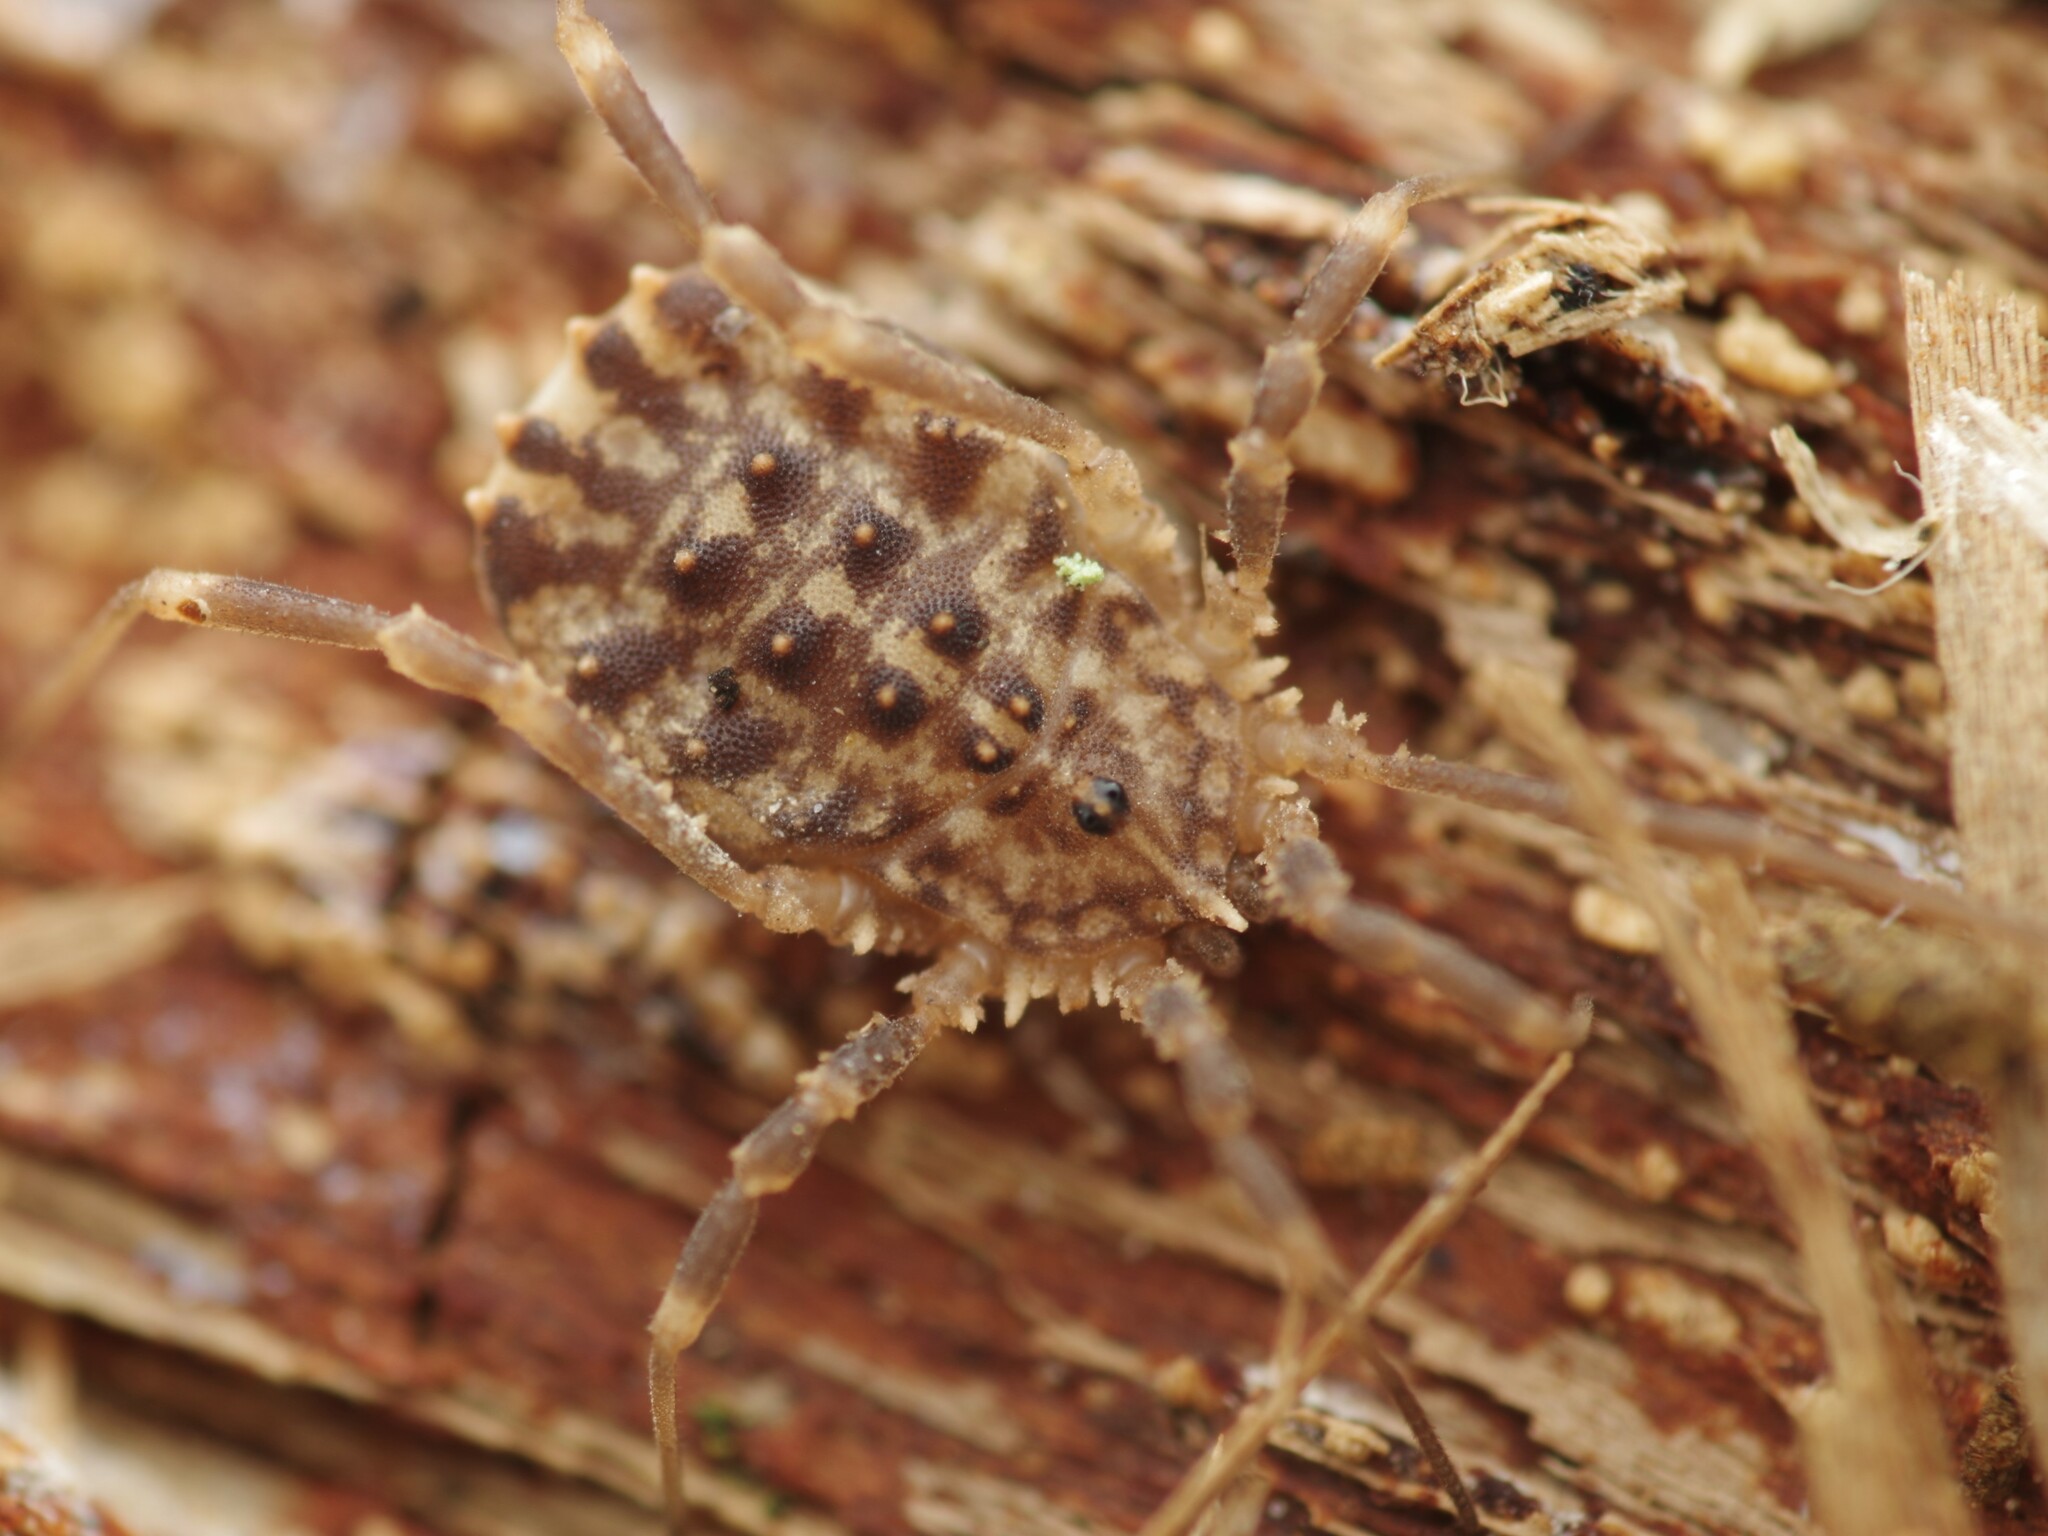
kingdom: Animalia
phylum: Arthropoda
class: Arachnida
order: Opiliones
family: Sclerosomatidae
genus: Homalenotus
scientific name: Homalenotus quadridentatus
